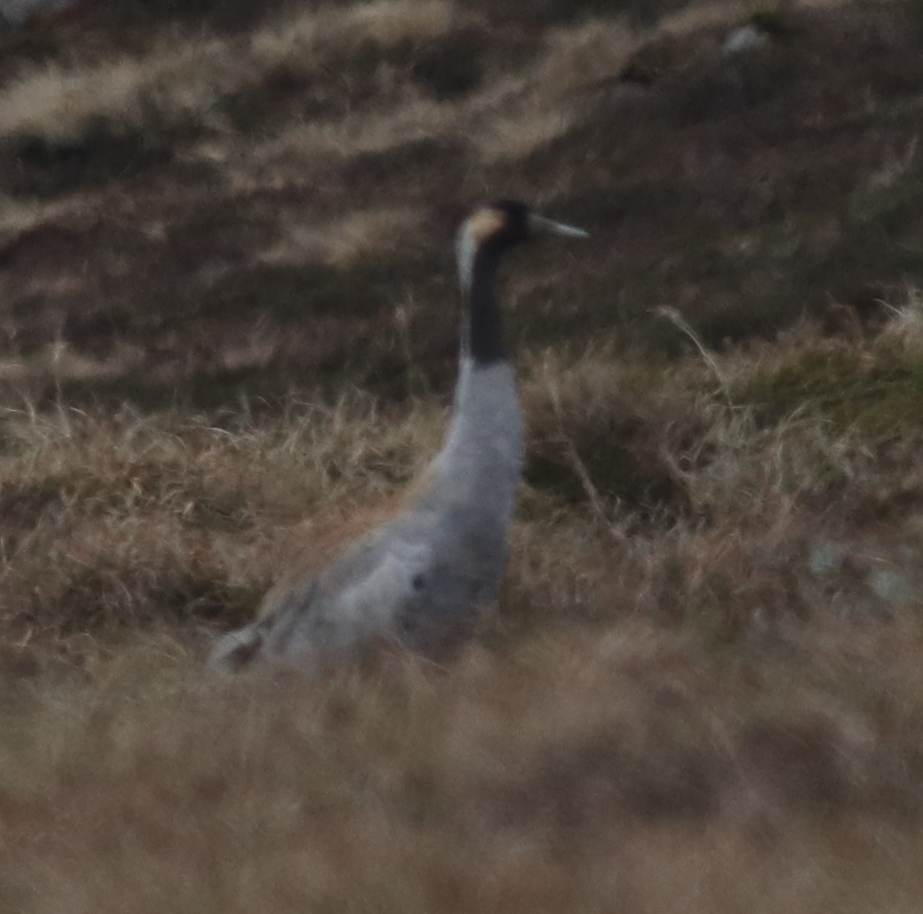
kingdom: Animalia
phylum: Chordata
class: Aves
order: Gruiformes
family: Gruidae
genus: Grus
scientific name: Grus grus
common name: Common crane
